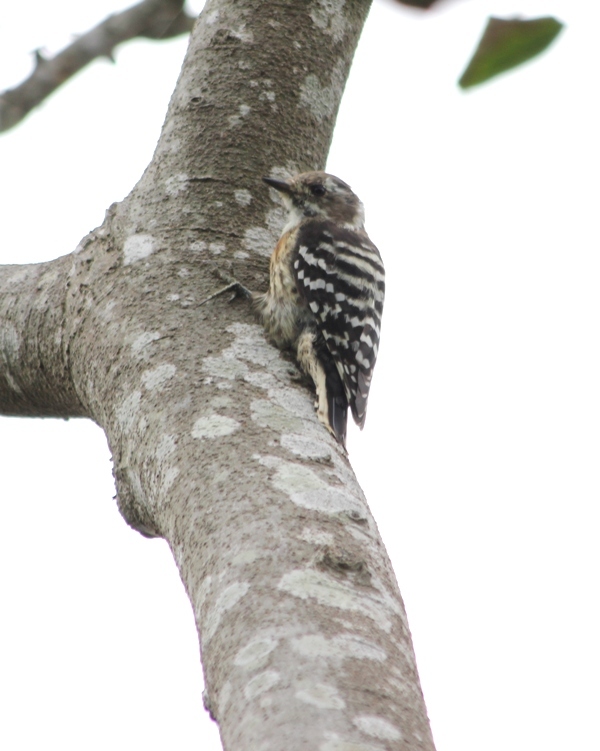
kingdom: Animalia
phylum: Chordata
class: Aves
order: Piciformes
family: Picidae
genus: Yungipicus
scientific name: Yungipicus kizuki
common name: Japanese pygmy woodpecker
